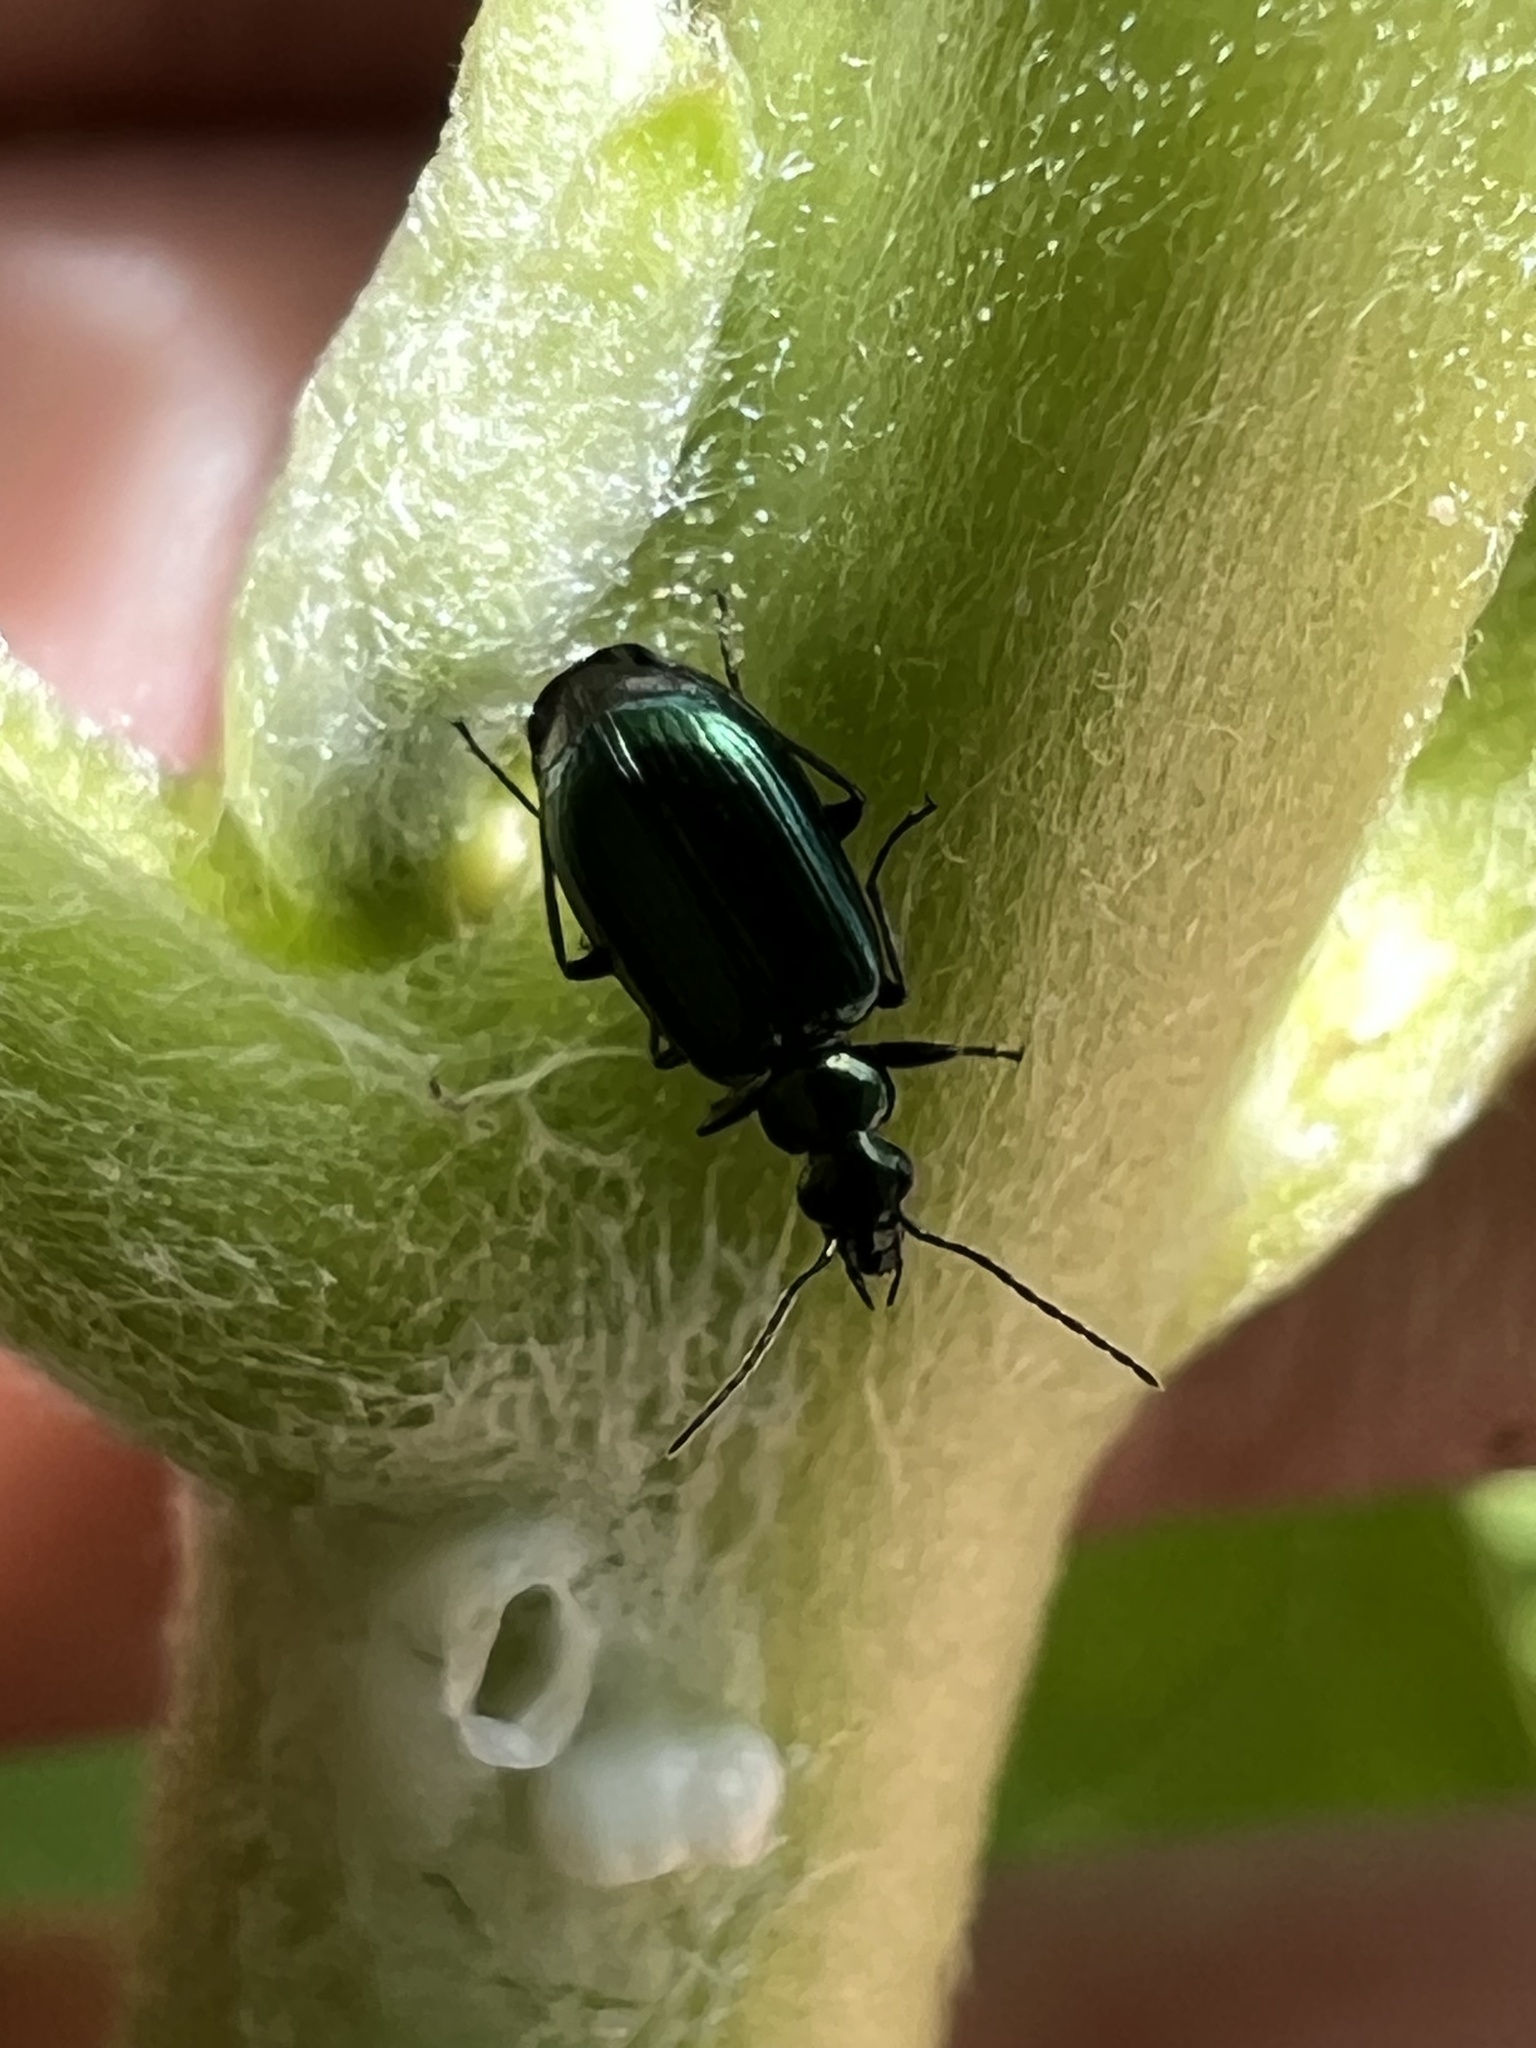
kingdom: Animalia
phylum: Arthropoda
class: Insecta
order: Coleoptera
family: Carabidae
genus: Lebia
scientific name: Lebia viridis
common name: Flower lebia beetle
